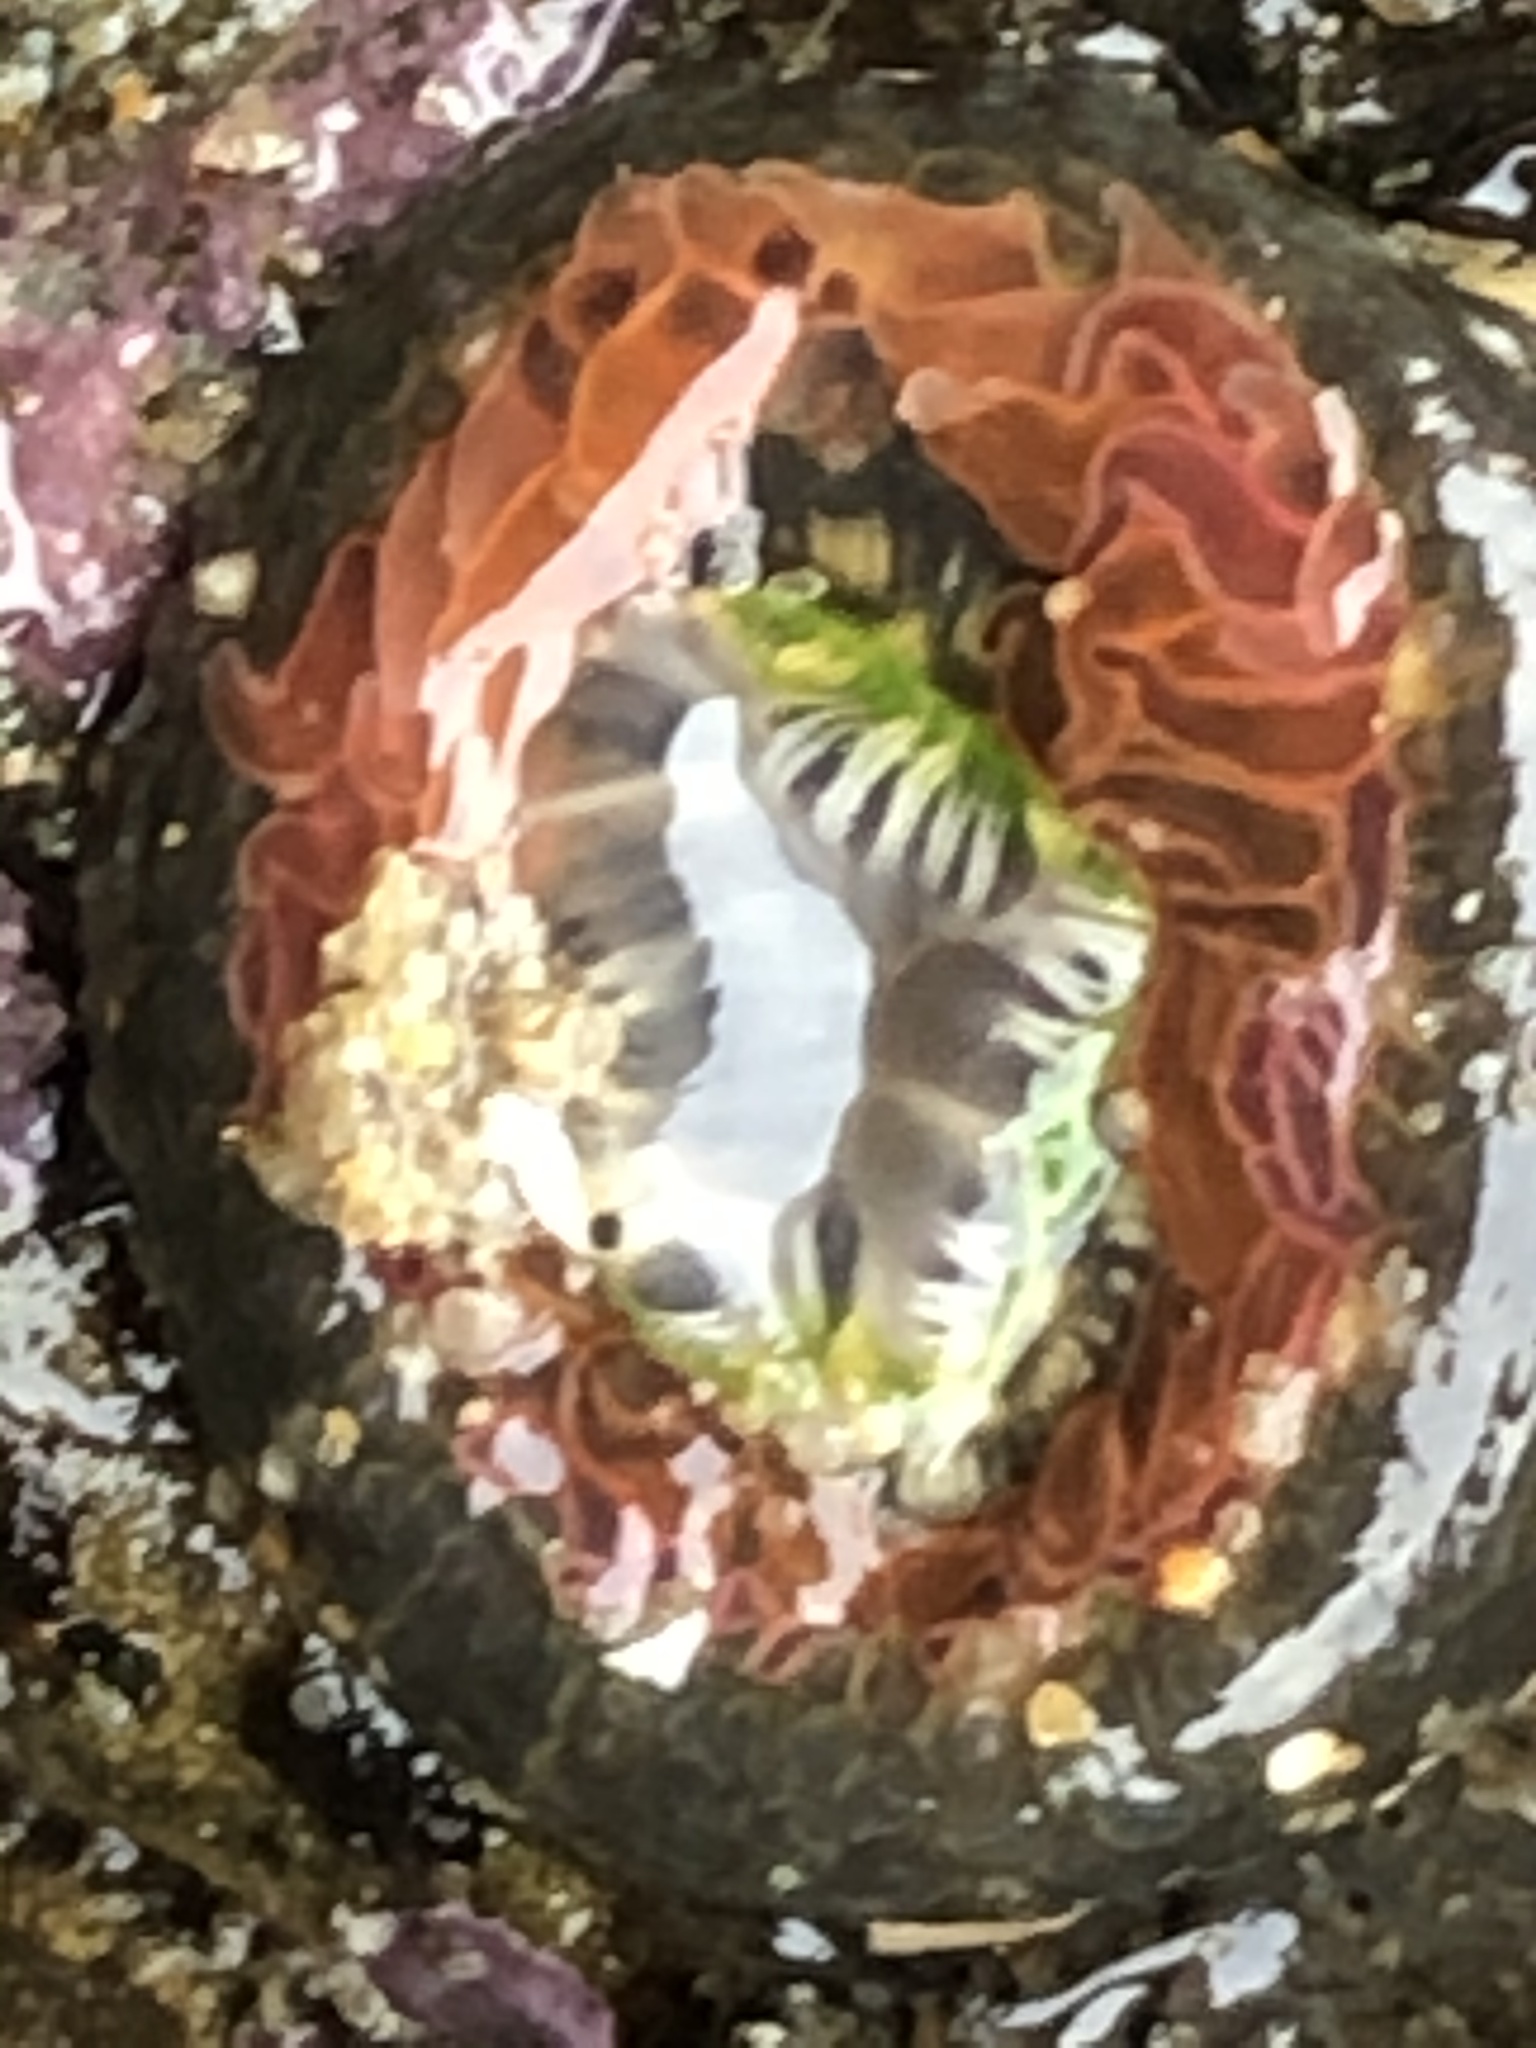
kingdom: Animalia
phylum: Cnidaria
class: Anthozoa
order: Actiniaria
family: Actiniidae
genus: Anthopleura
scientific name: Anthopleura artemisia
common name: Buried sea anemone
